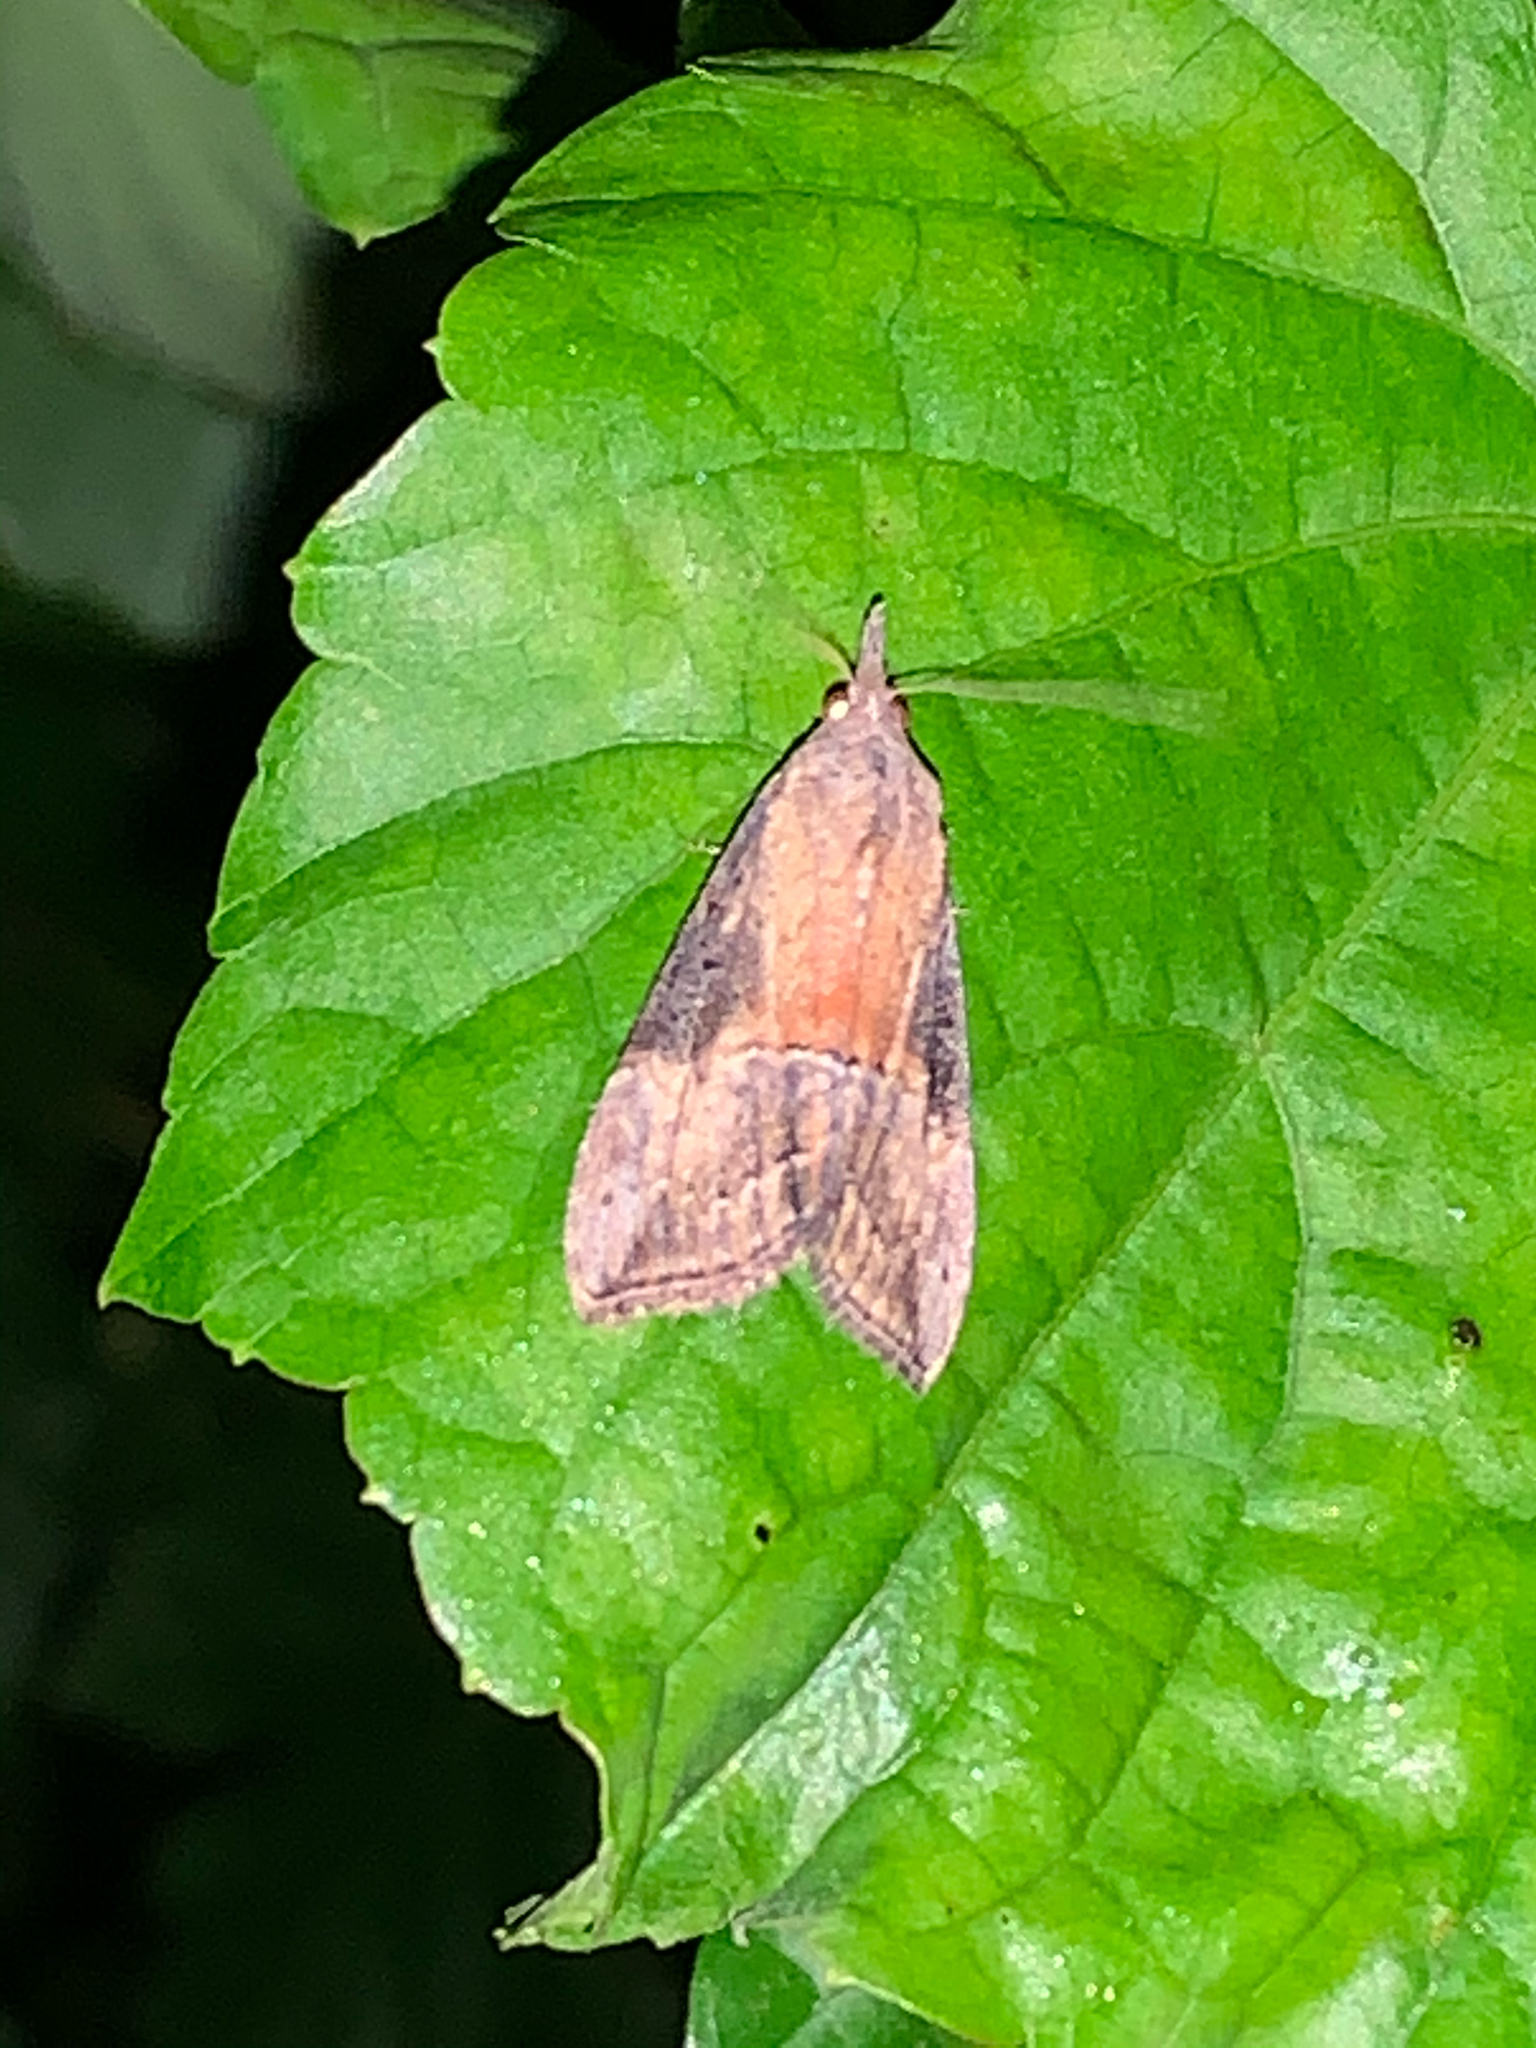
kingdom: Animalia
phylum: Arthropoda
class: Insecta
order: Lepidoptera
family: Erebidae
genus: Hypena
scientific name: Hypena scabra
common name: Green cloverworm
